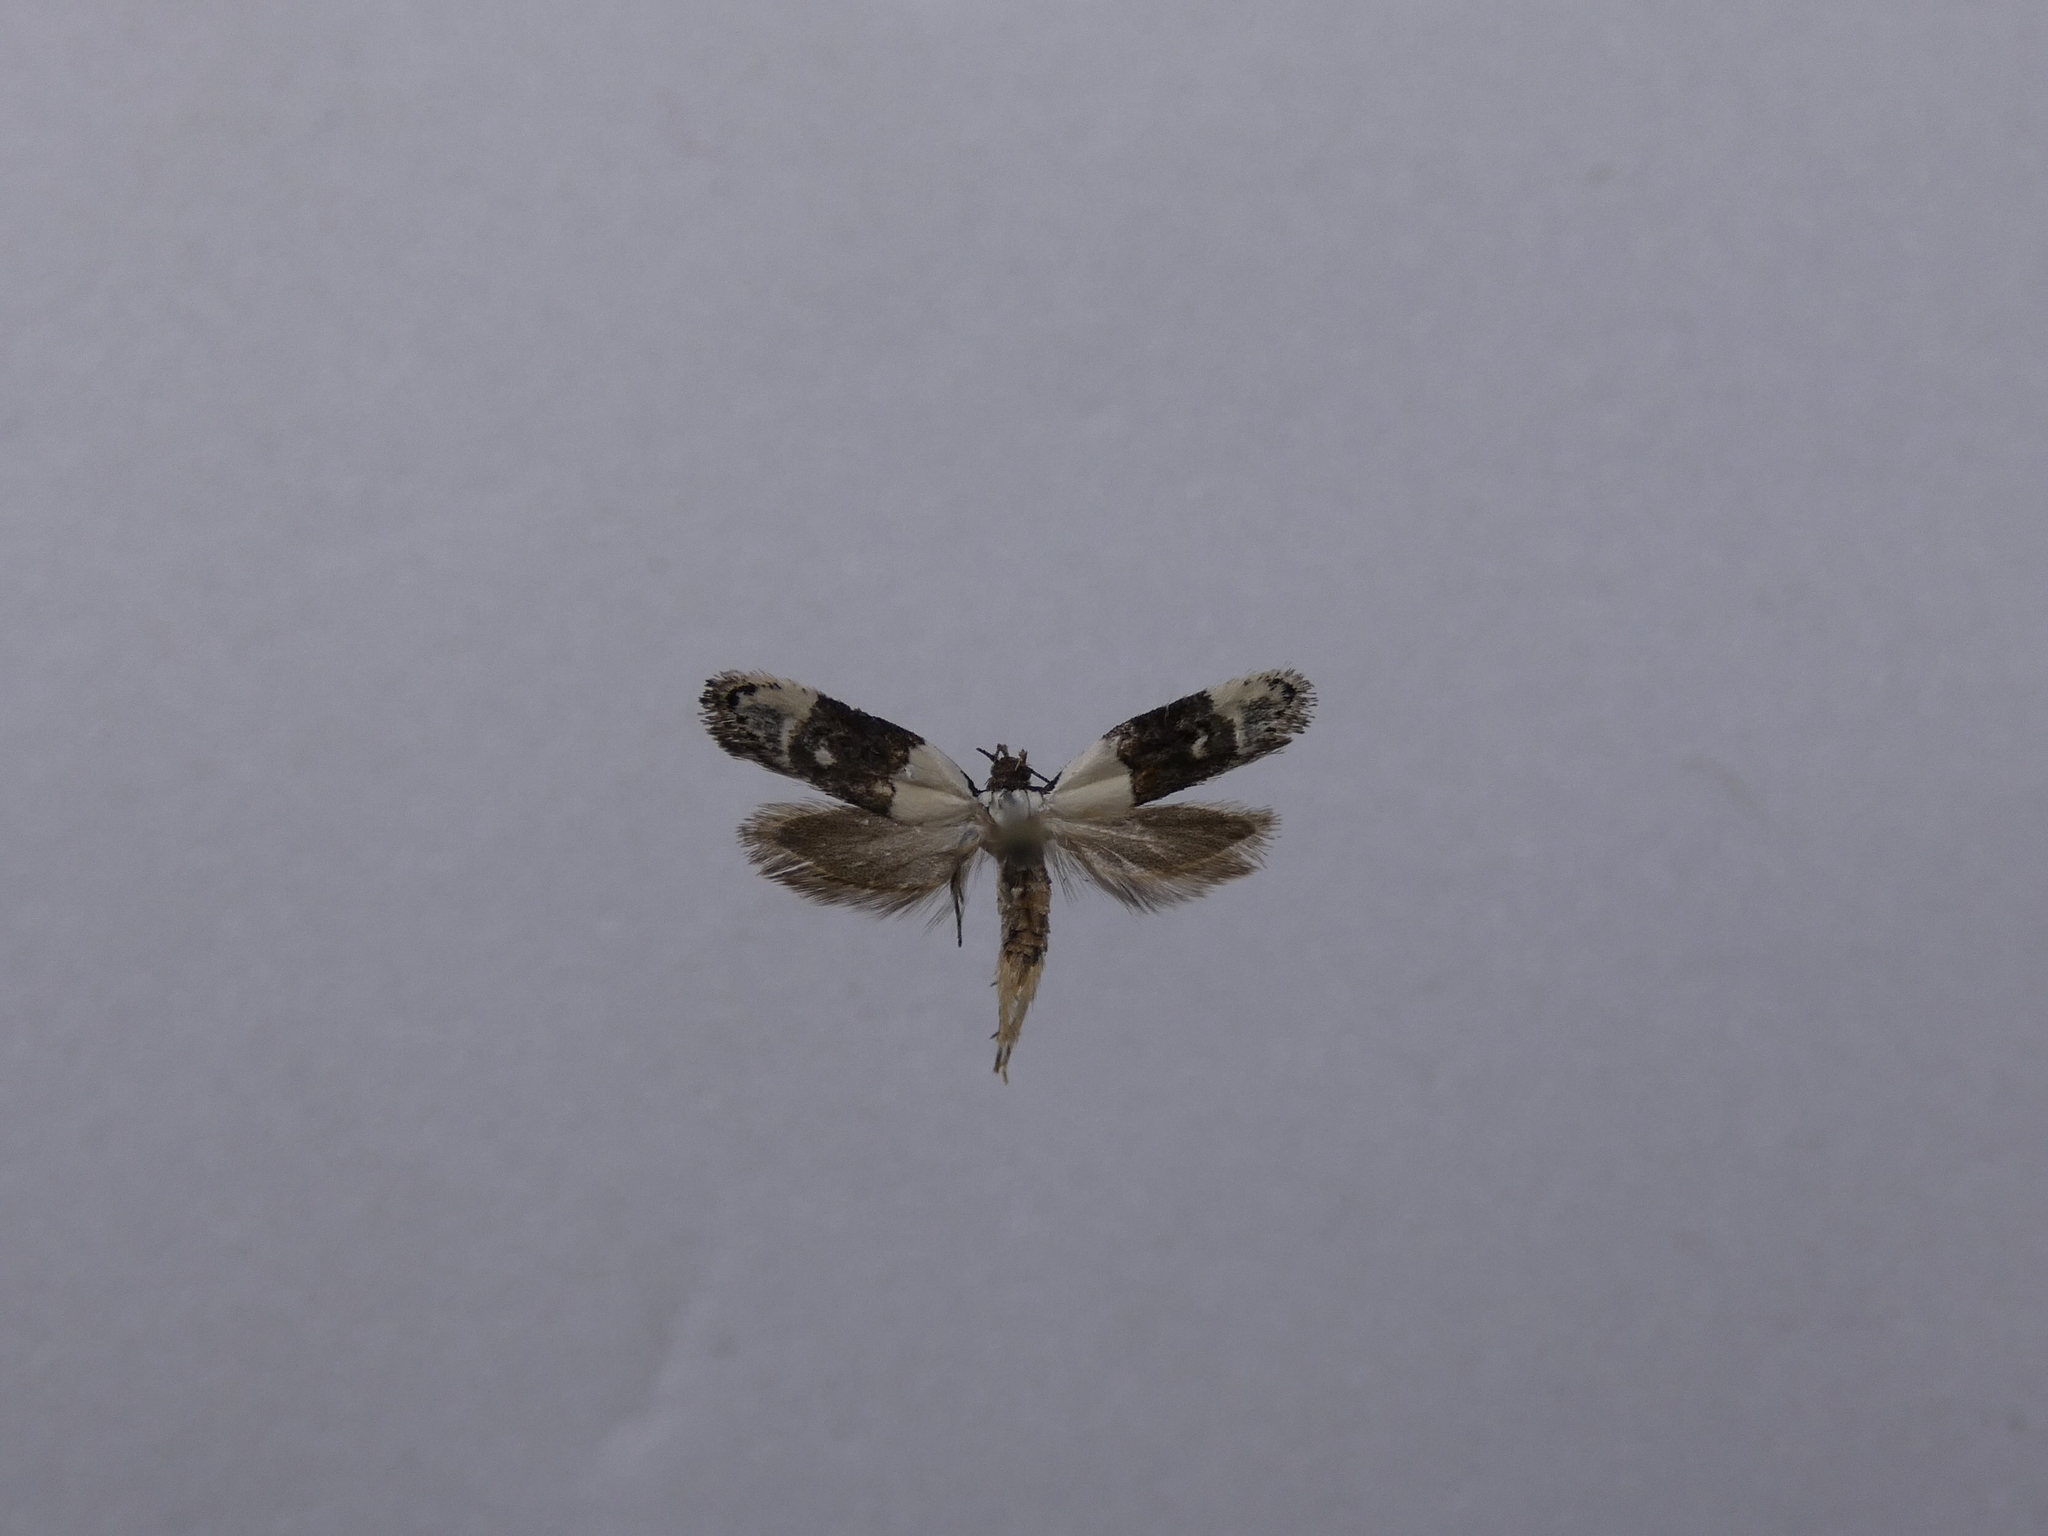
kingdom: Animalia
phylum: Arthropoda
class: Insecta
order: Lepidoptera
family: Oecophoridae
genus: Trachypepla
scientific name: Trachypepla amphileuca
